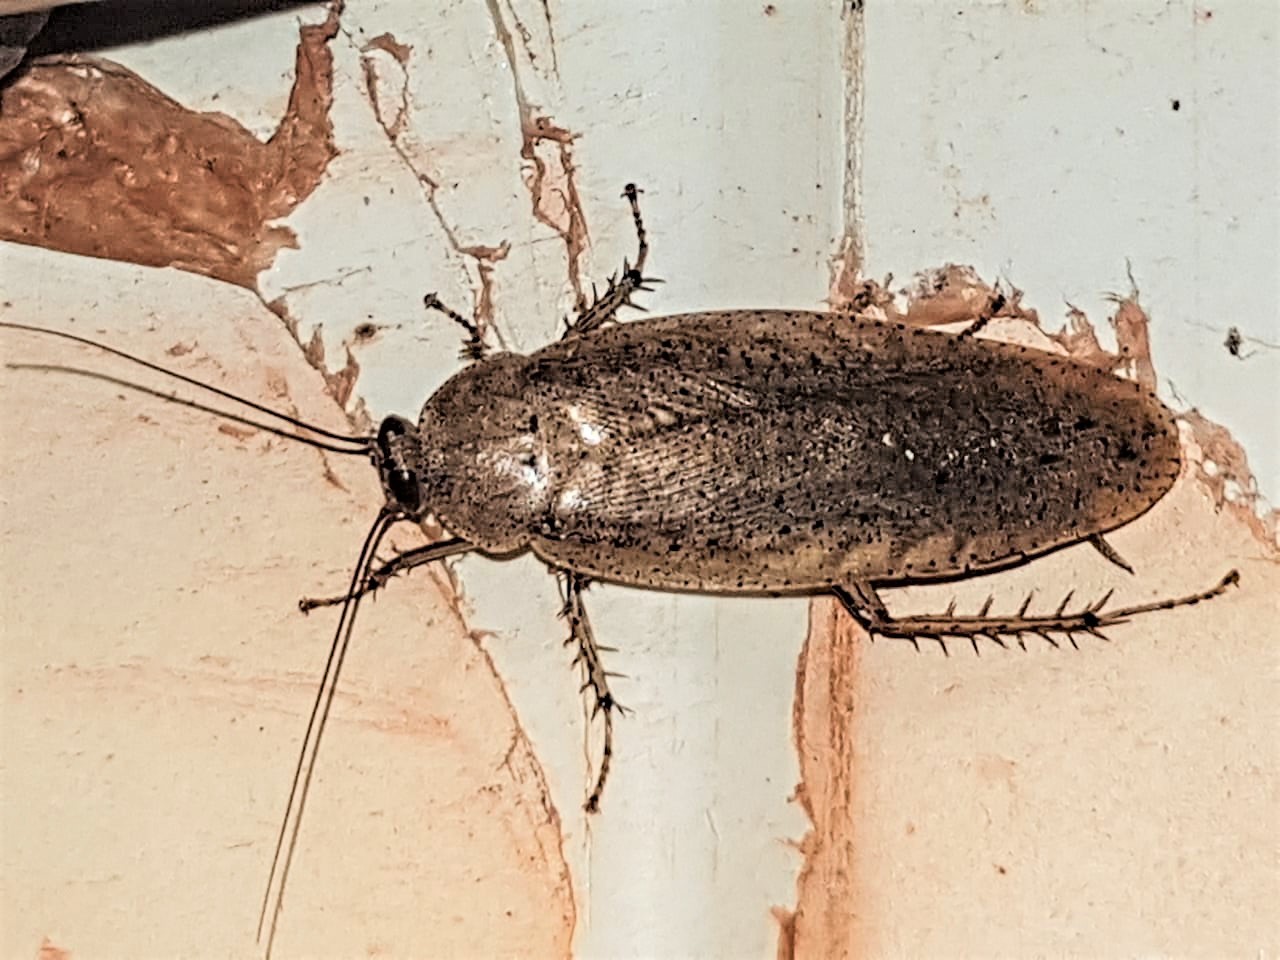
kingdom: Animalia
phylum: Arthropoda
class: Insecta
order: Blattodea
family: Blaberidae
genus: Epilampra
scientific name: Epilampra guianae
